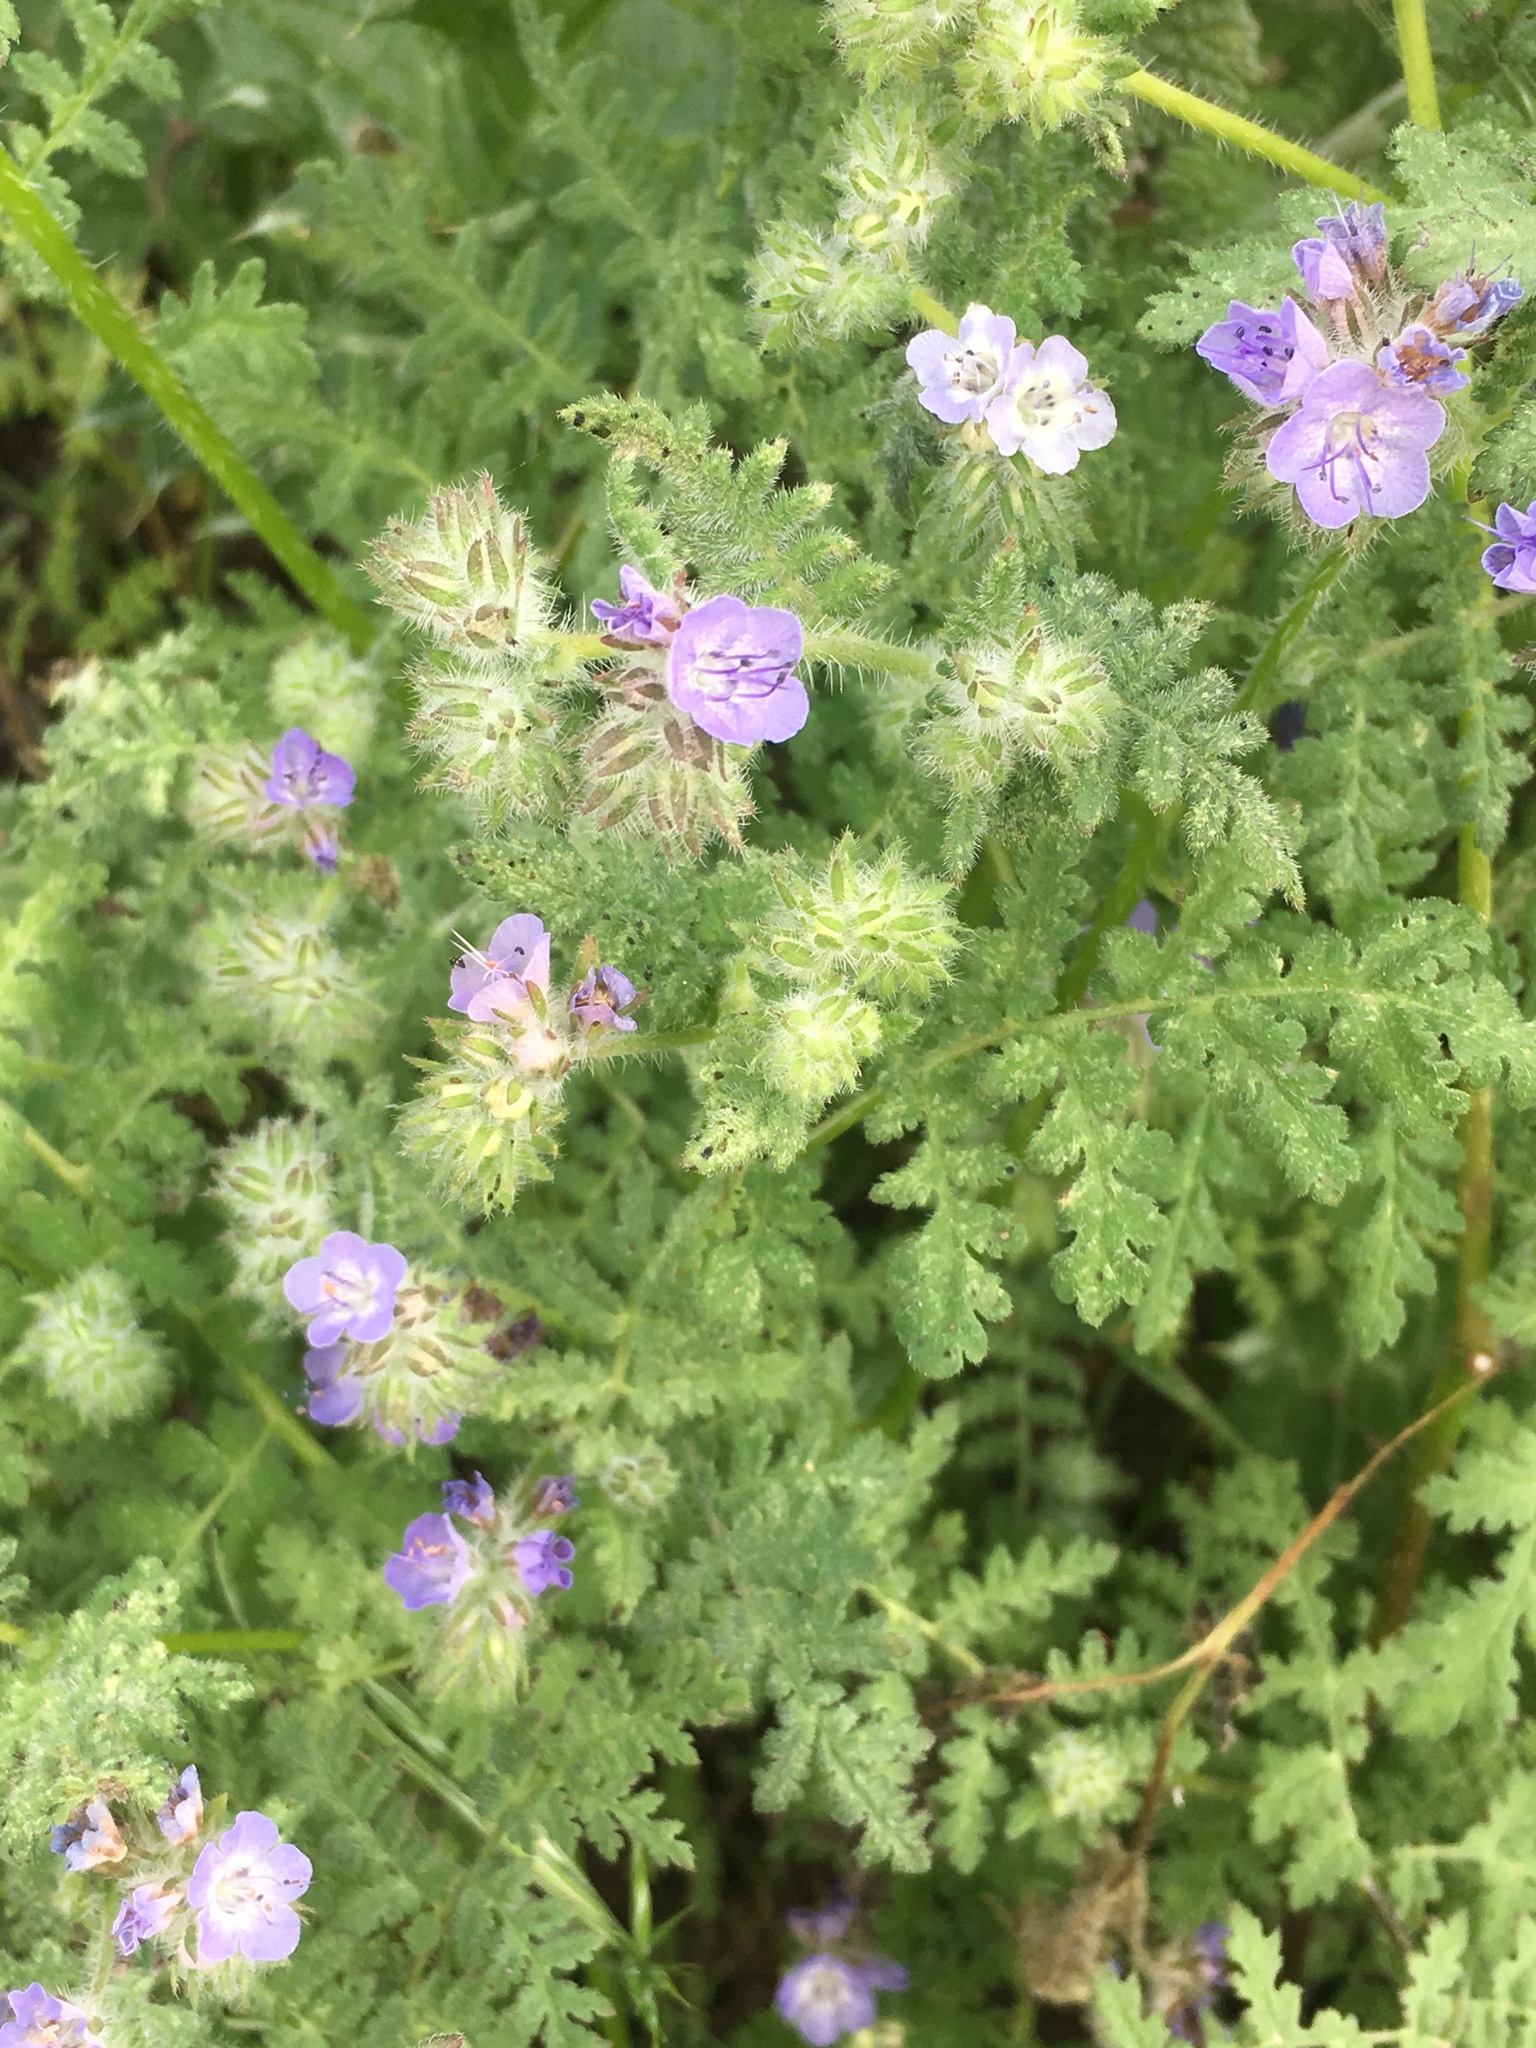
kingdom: Plantae
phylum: Tracheophyta
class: Magnoliopsida
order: Boraginales
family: Hydrophyllaceae
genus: Phacelia
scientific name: Phacelia distans
